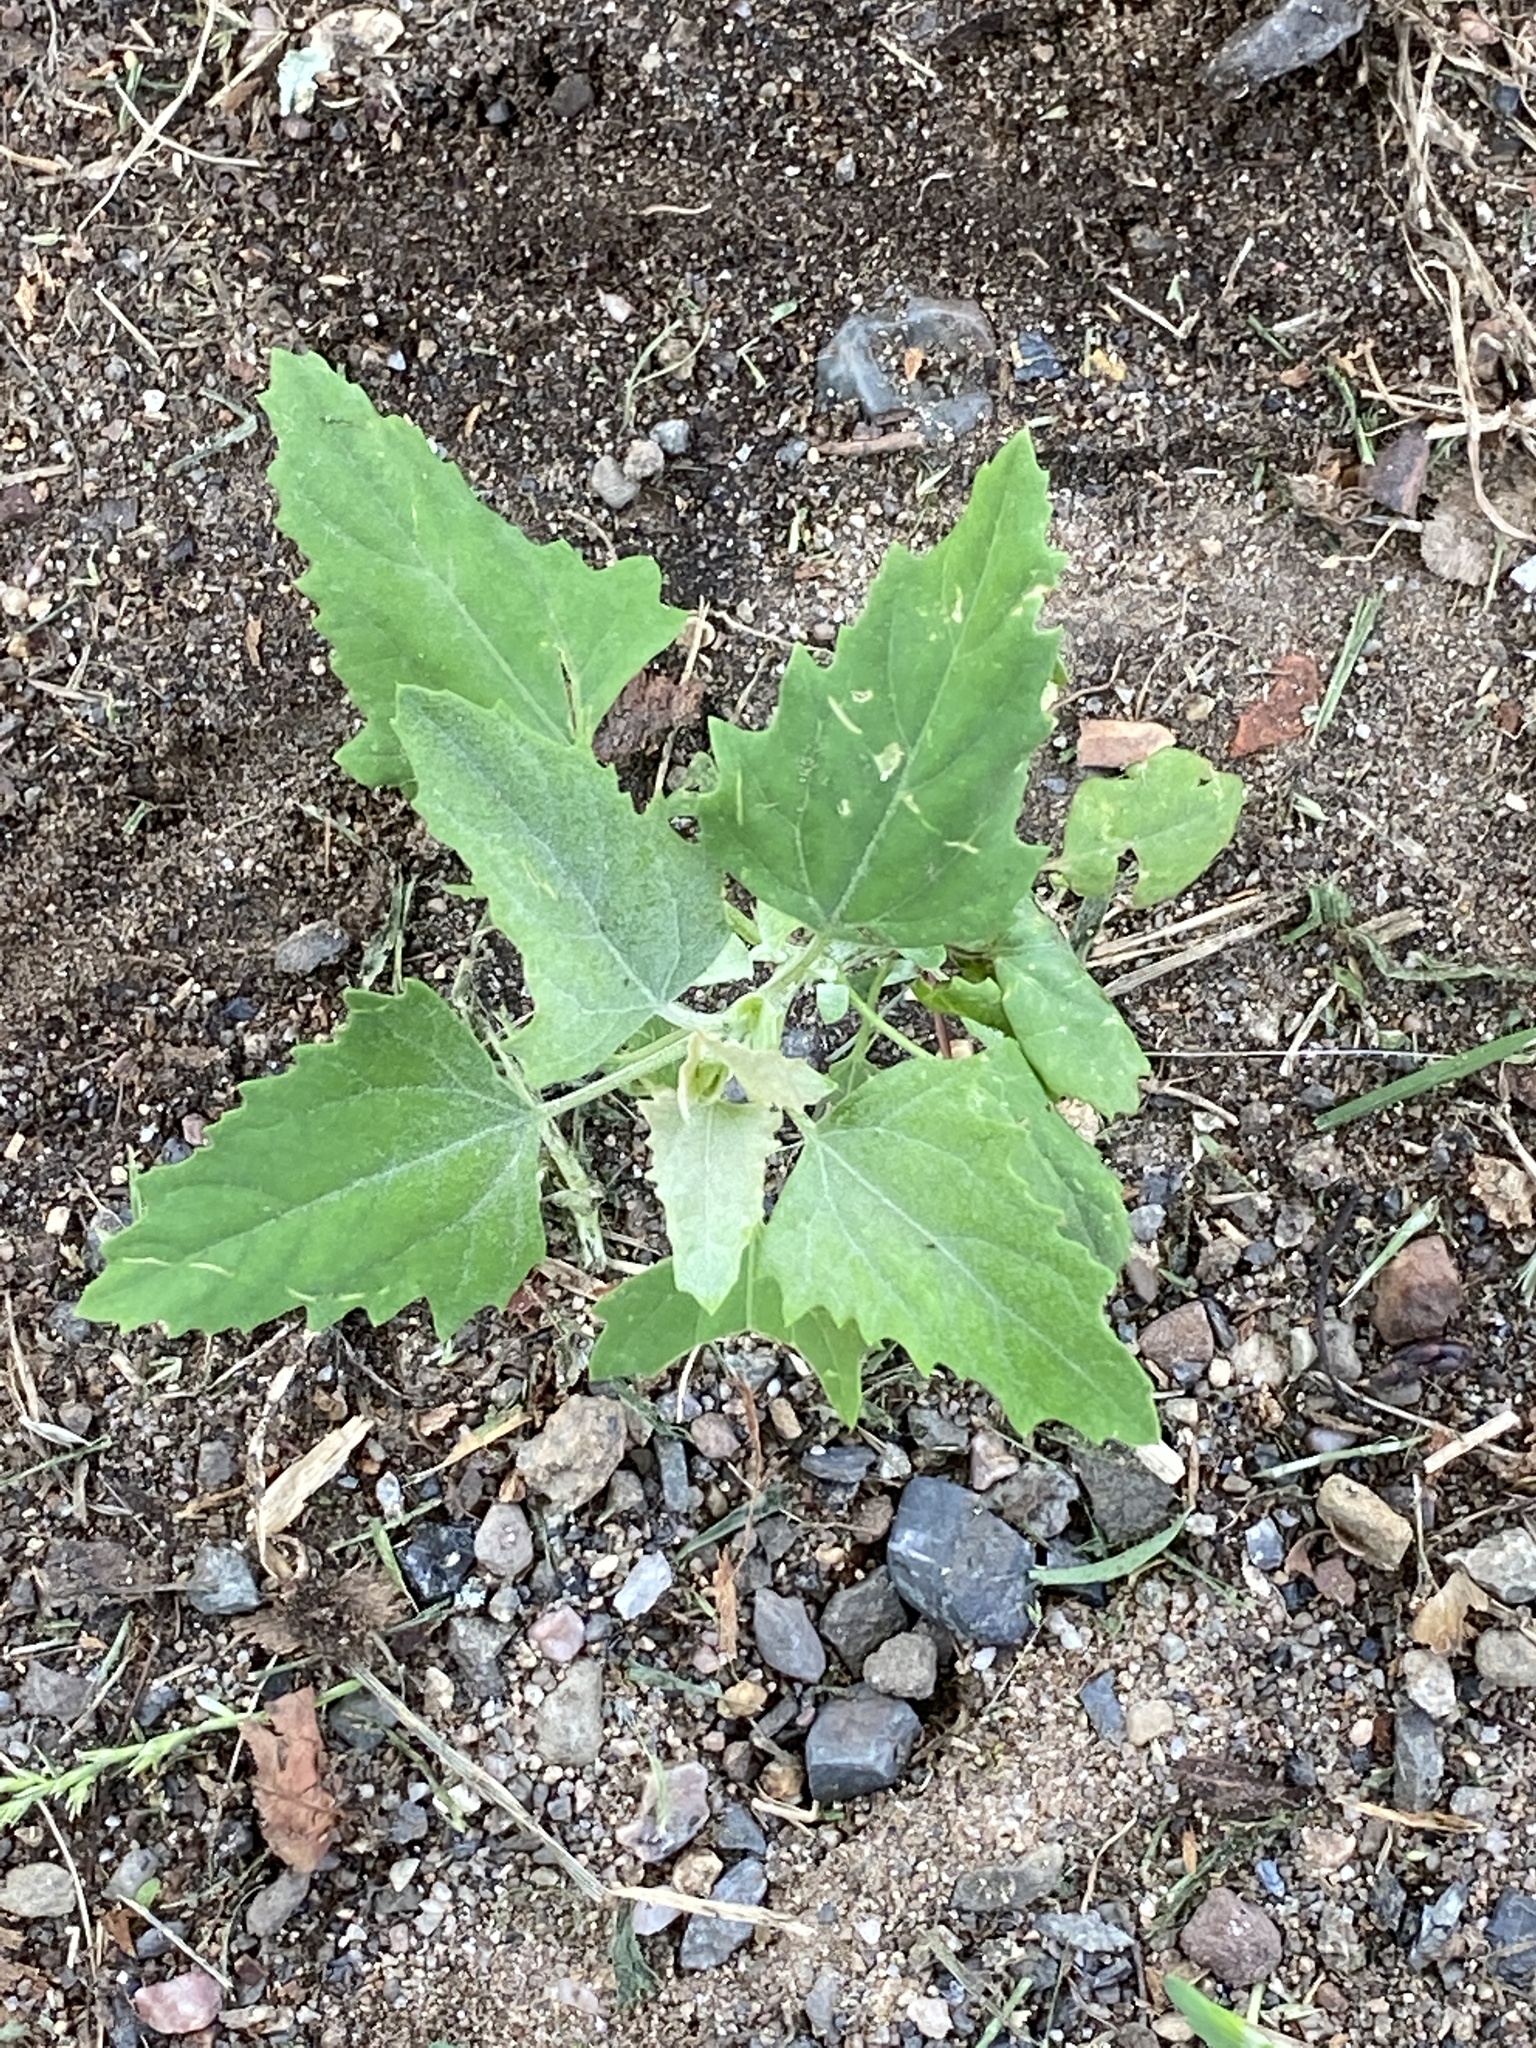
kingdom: Plantae
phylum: Tracheophyta
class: Magnoliopsida
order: Caryophyllales
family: Amaranthaceae
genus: Chenopodium
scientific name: Chenopodium album
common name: Fat-hen
